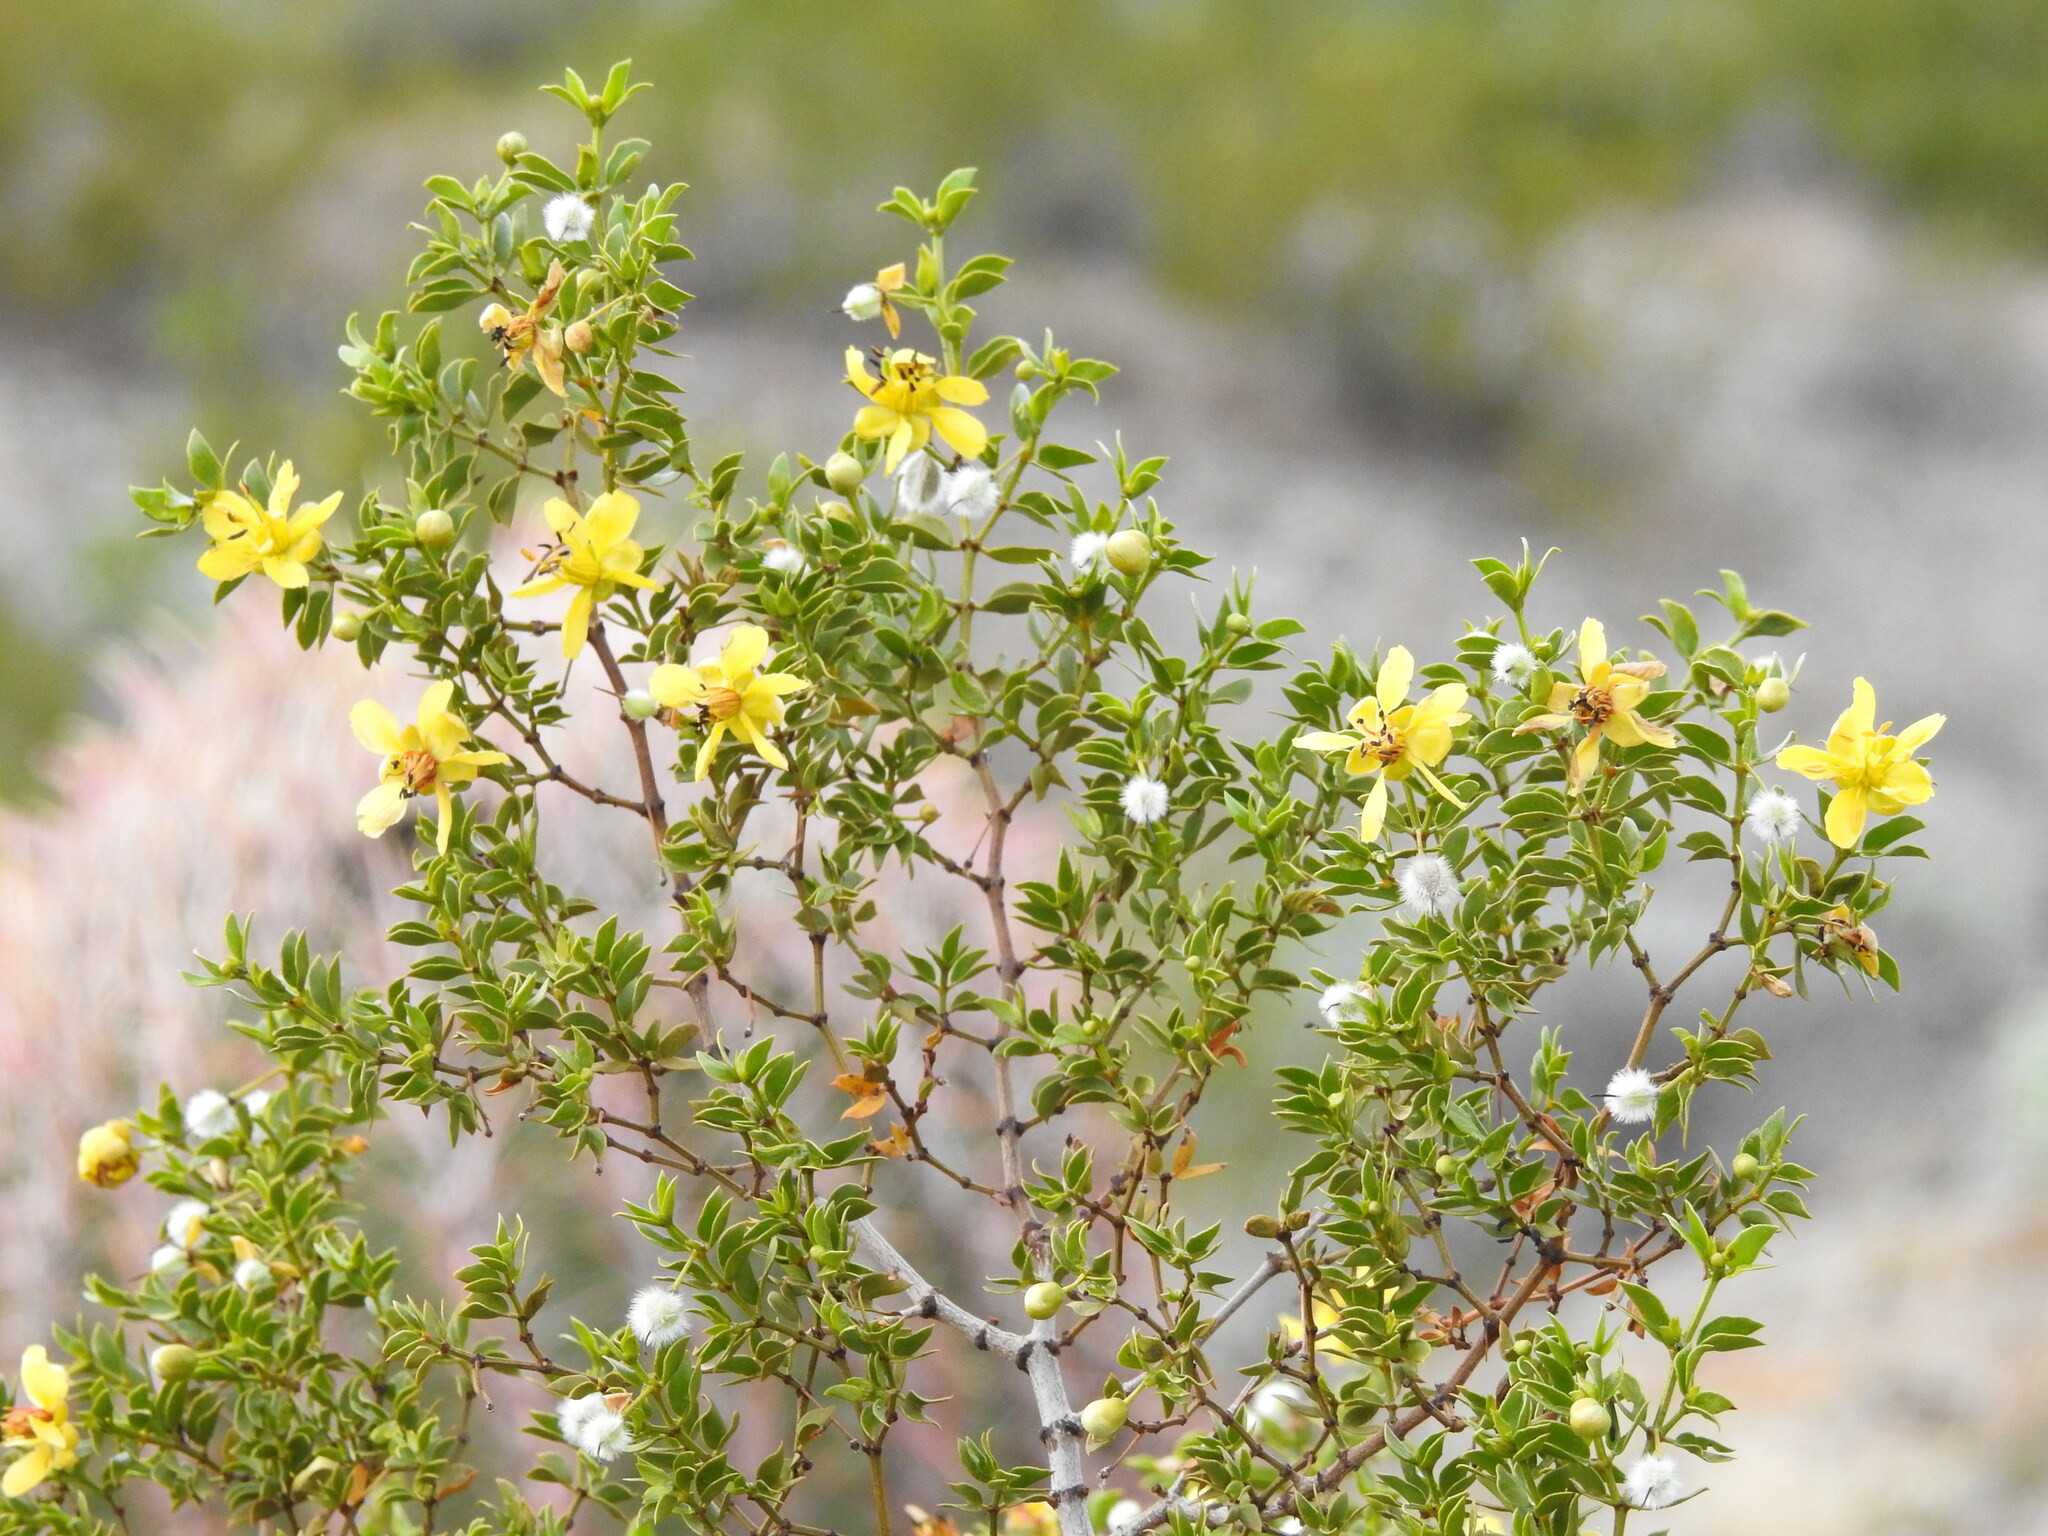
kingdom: Plantae
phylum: Tracheophyta
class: Magnoliopsida
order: Zygophyllales
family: Zygophyllaceae
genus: Larrea
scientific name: Larrea tridentata
